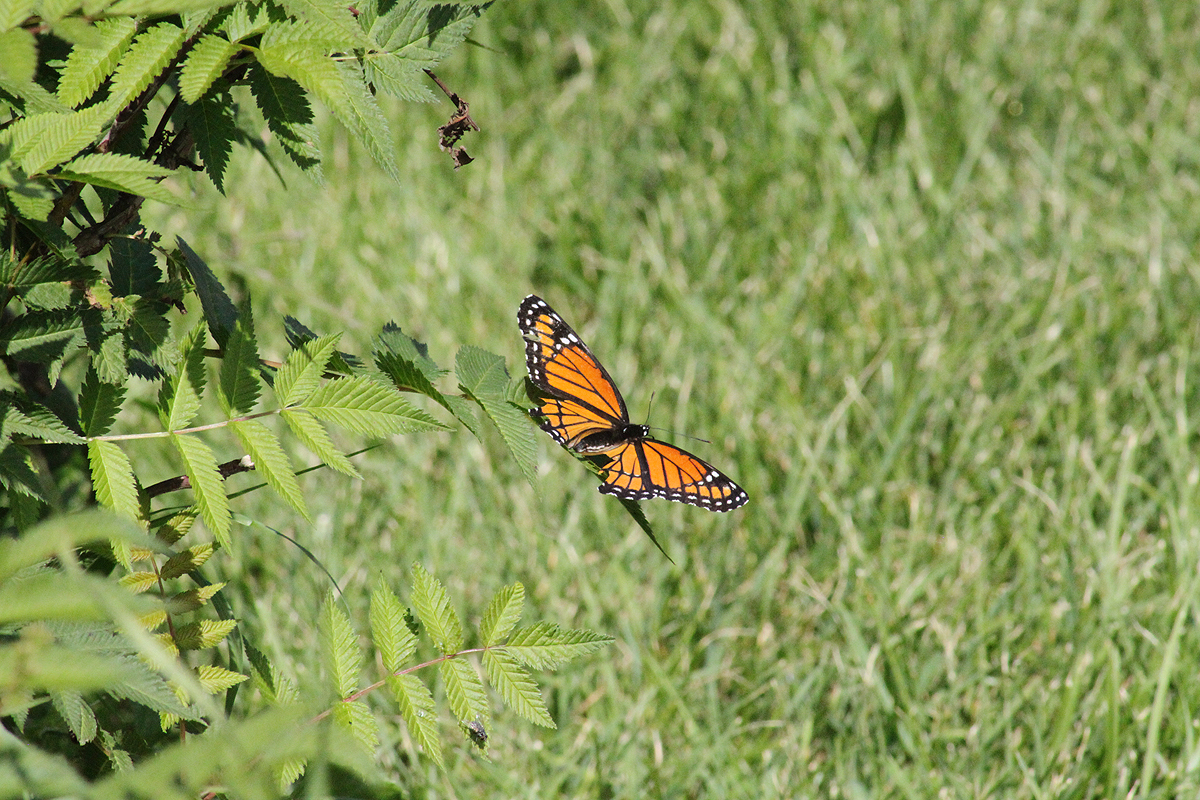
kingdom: Animalia
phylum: Arthropoda
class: Insecta
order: Lepidoptera
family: Nymphalidae
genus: Limenitis
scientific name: Limenitis archippus
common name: Viceroy
